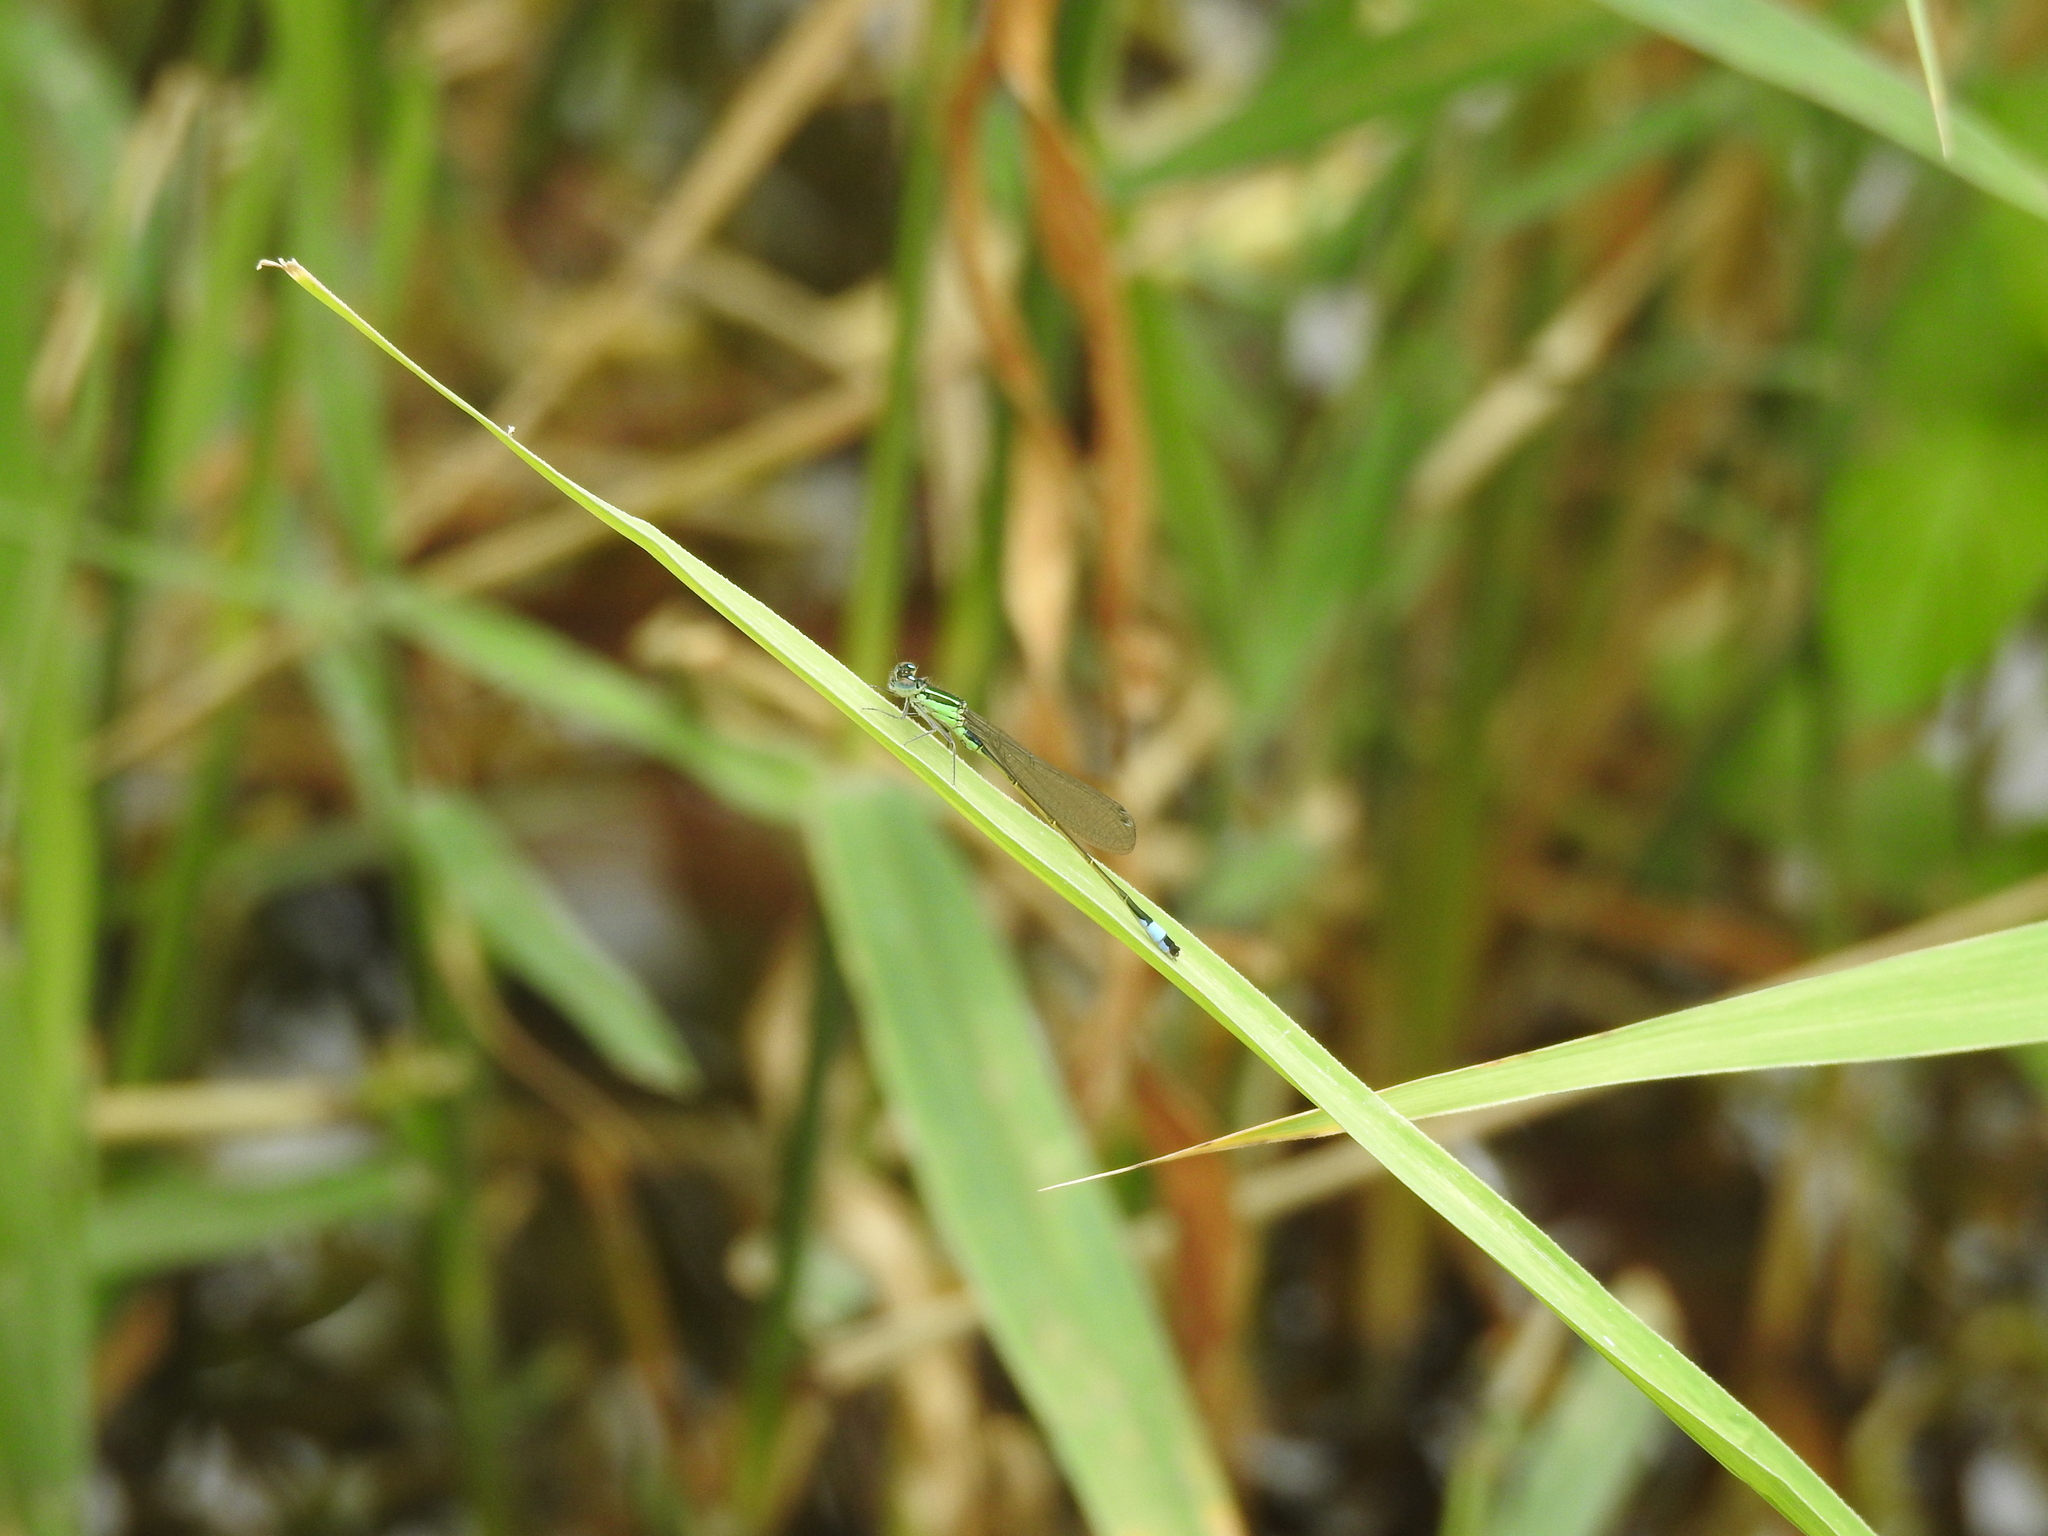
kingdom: Animalia
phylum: Arthropoda
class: Insecta
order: Odonata
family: Coenagrionidae
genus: Ischnura
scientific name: Ischnura elegans
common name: Blue-tailed damselfly
